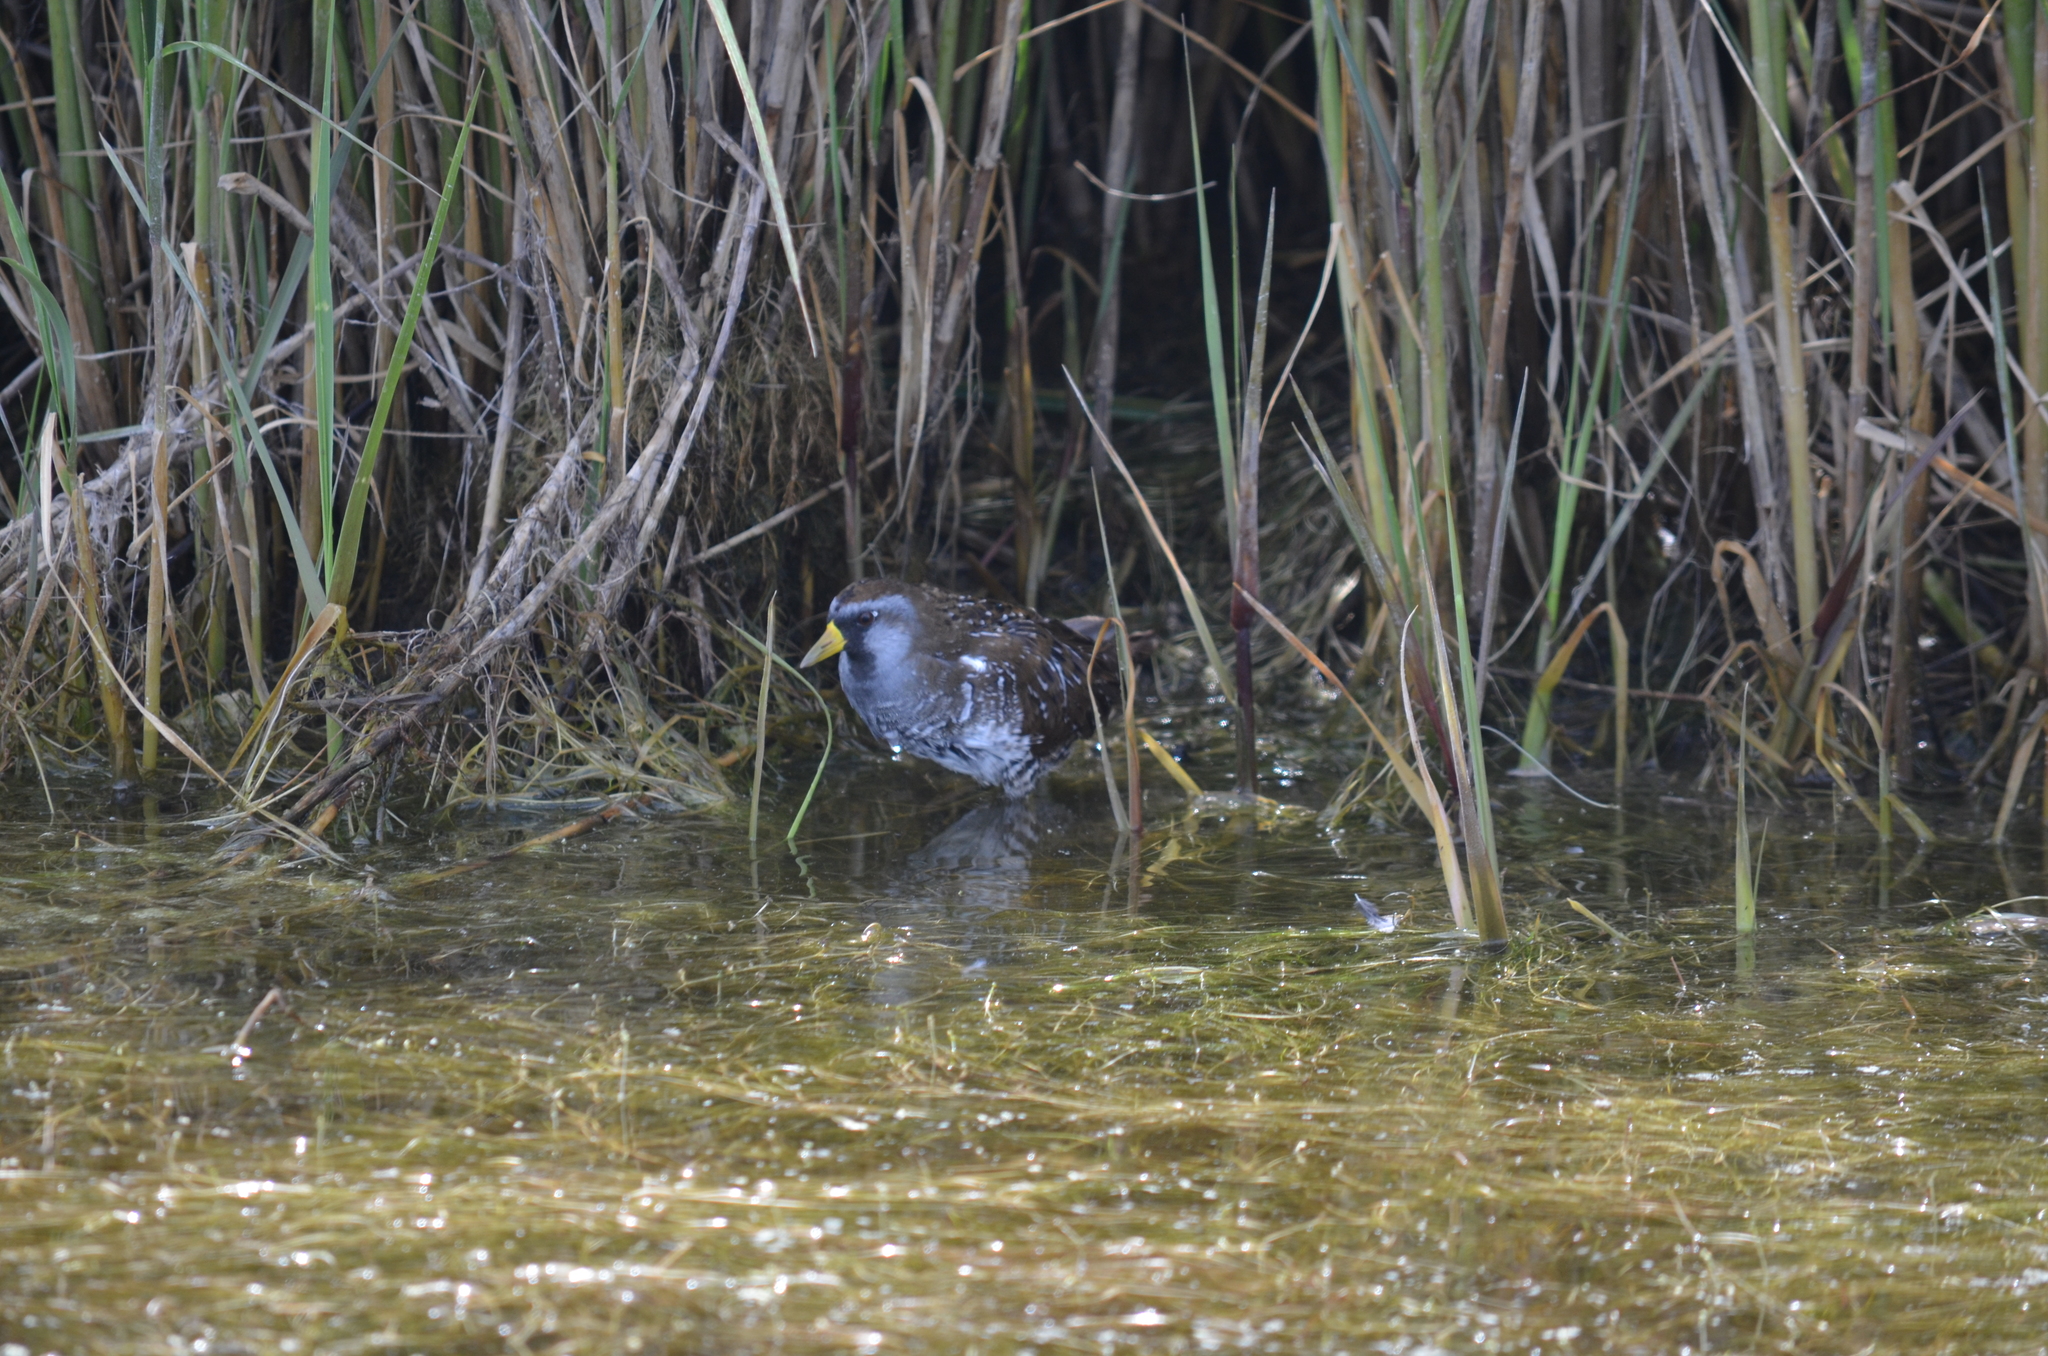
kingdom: Animalia
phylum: Chordata
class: Aves
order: Gruiformes
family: Rallidae
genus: Porzana
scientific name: Porzana carolina
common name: Sora
